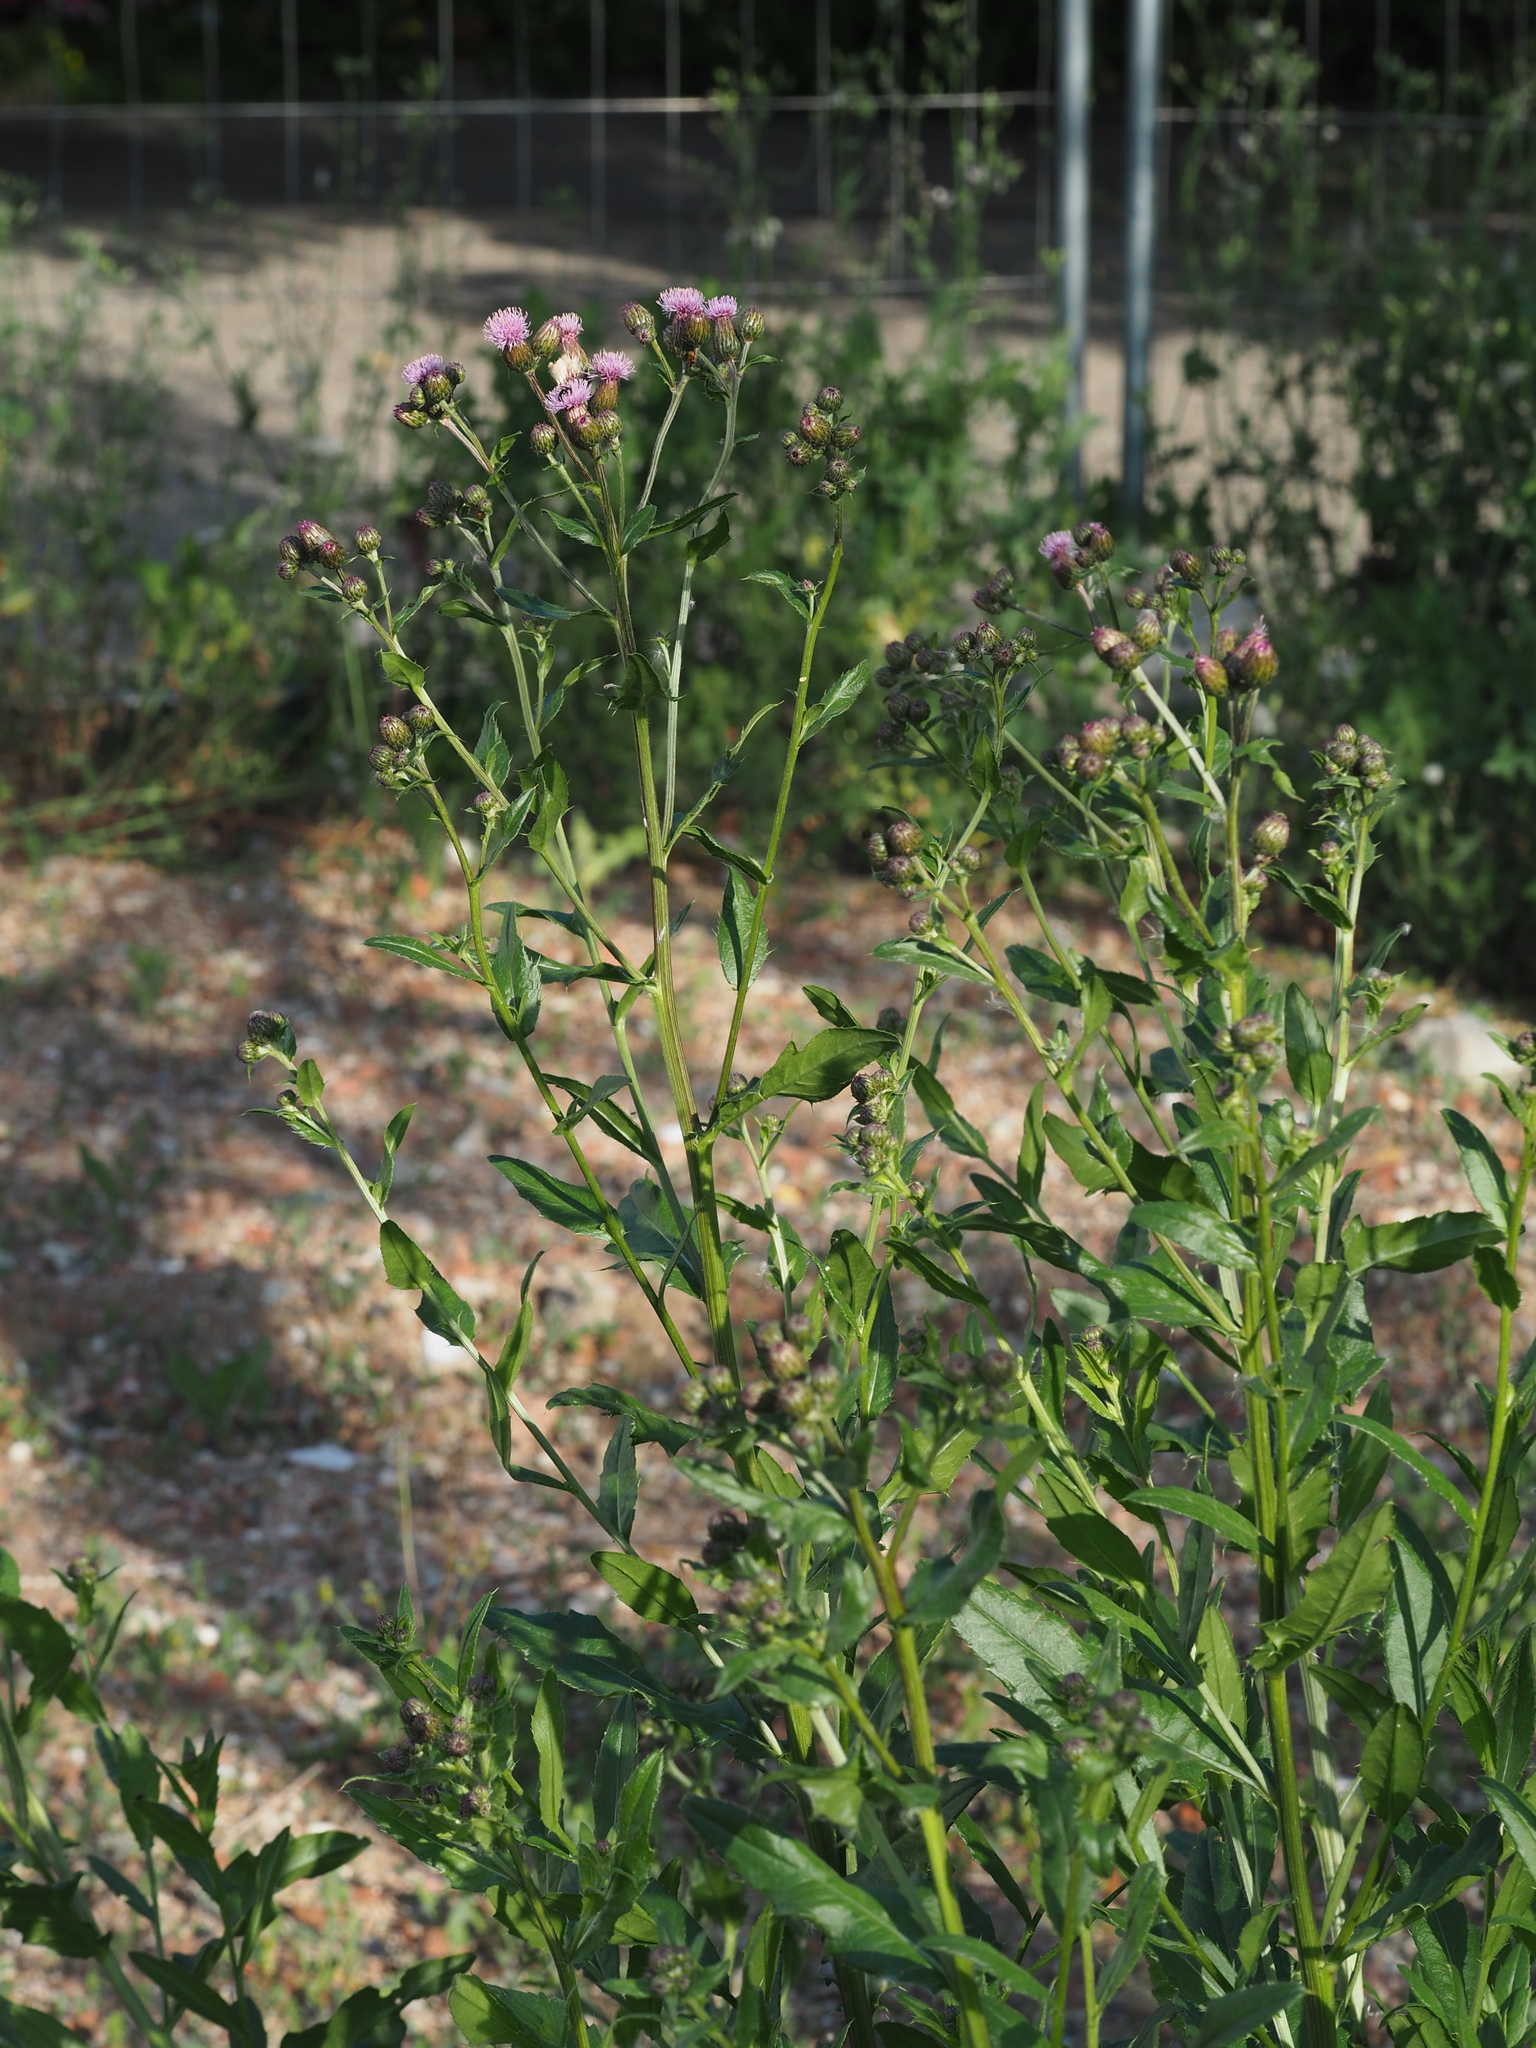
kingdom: Plantae
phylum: Tracheophyta
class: Magnoliopsida
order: Asterales
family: Asteraceae
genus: Cirsium
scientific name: Cirsium arvense
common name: Creeping thistle
